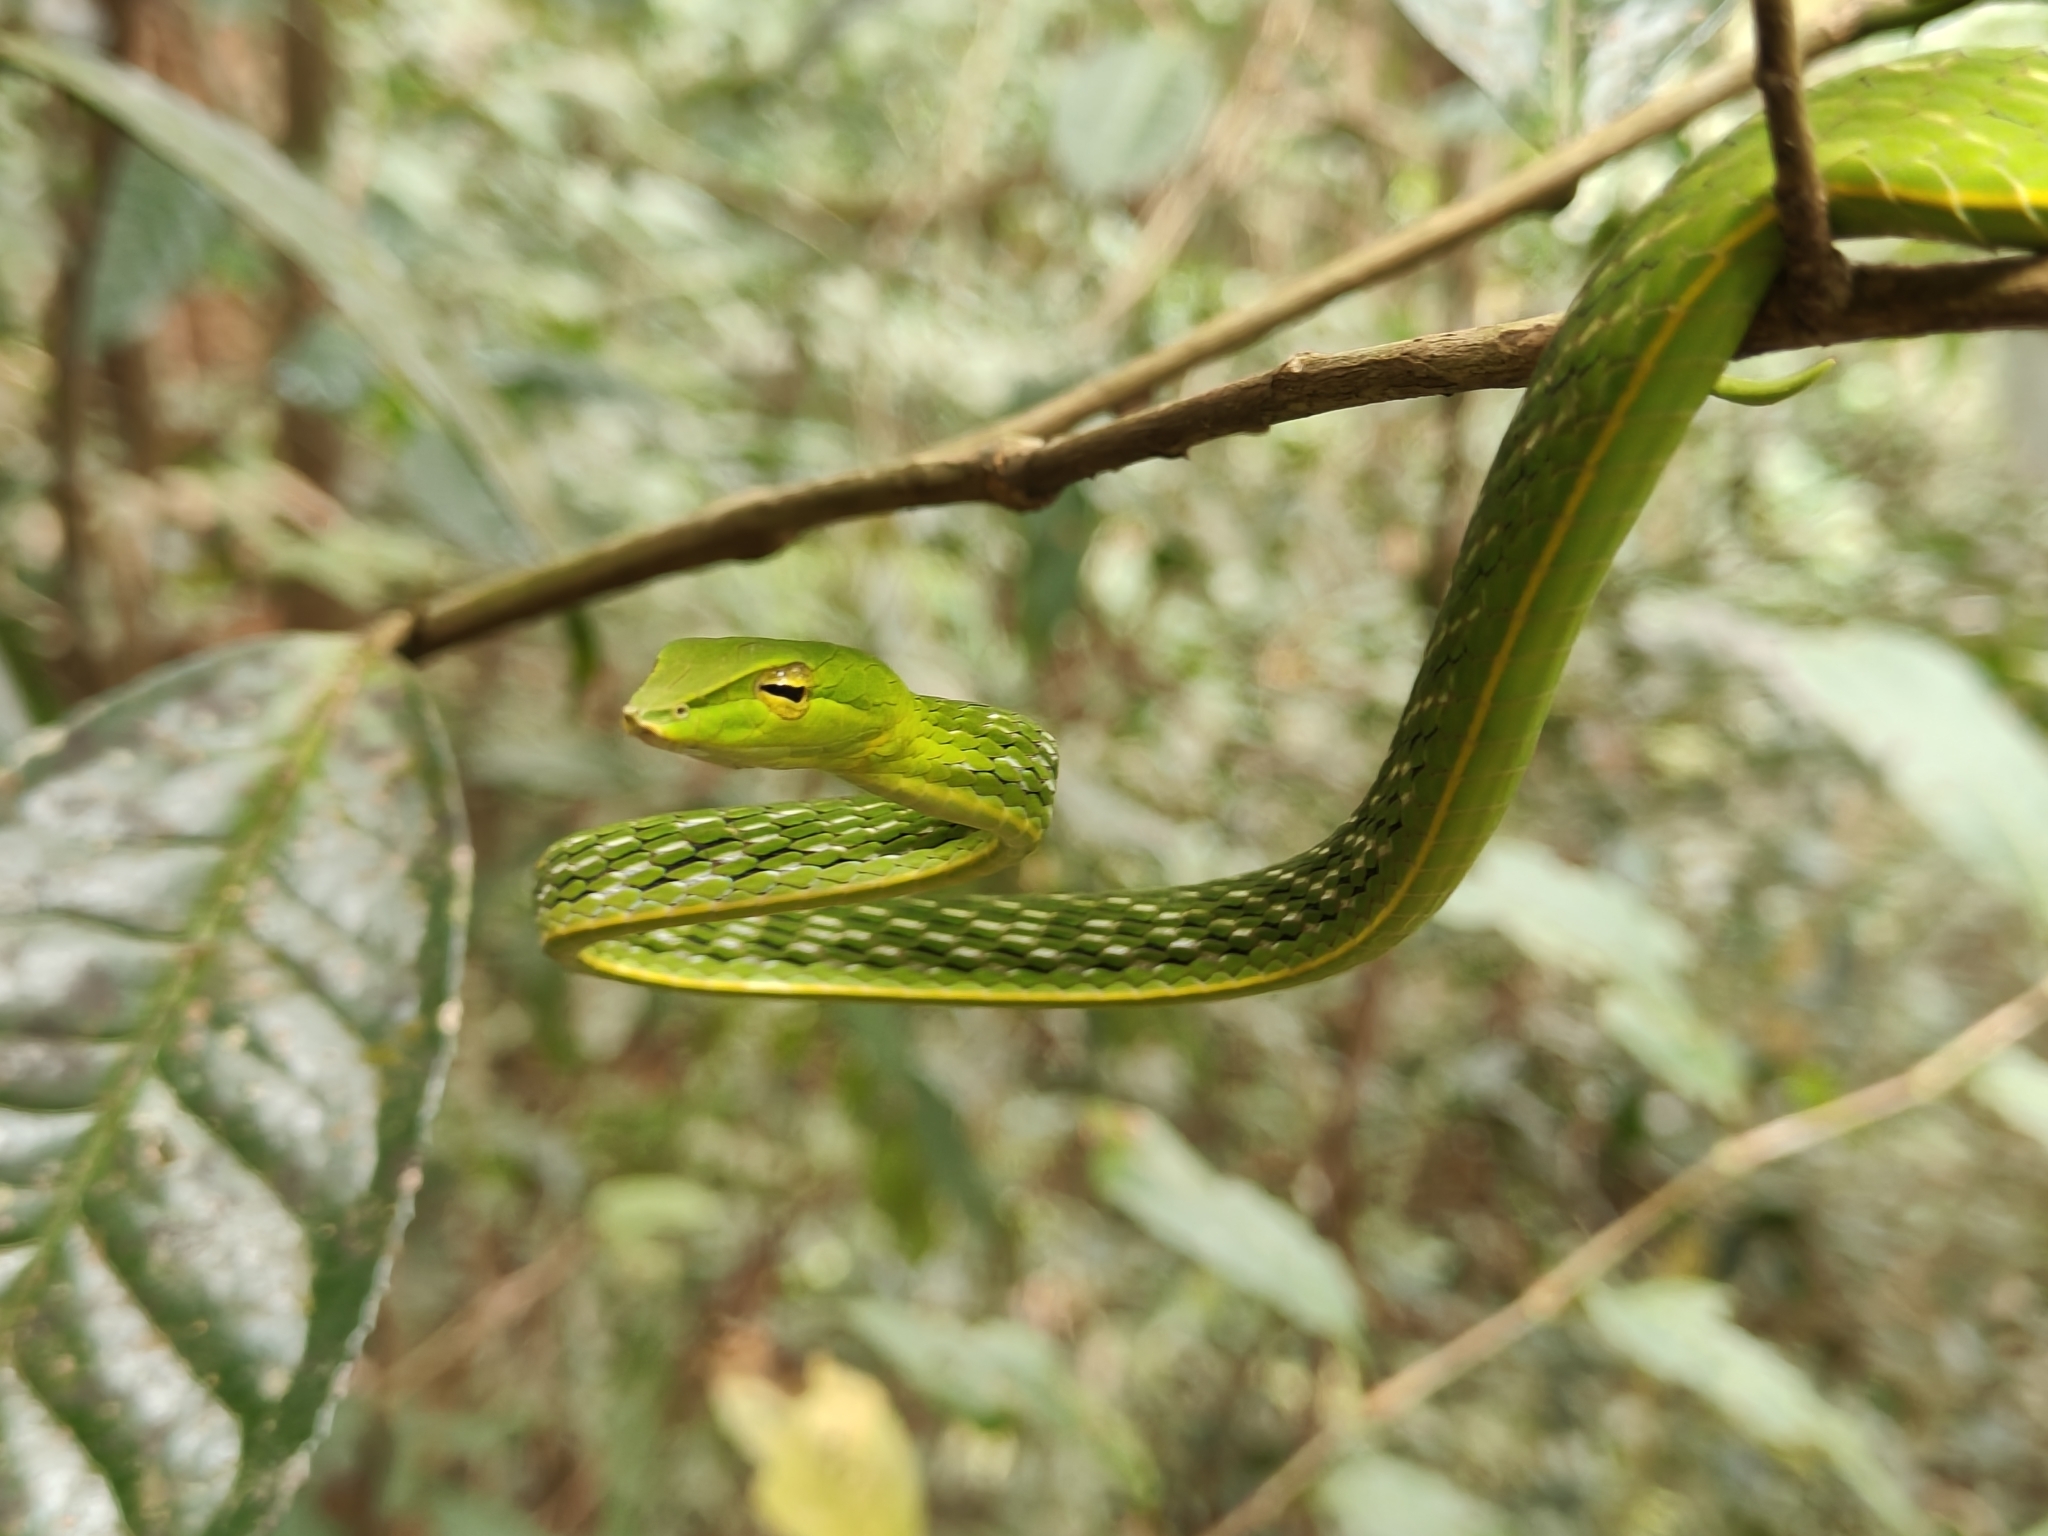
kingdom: Animalia
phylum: Chordata
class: Squamata
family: Colubridae
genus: Ahaetulla
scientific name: Ahaetulla farnsworthi
